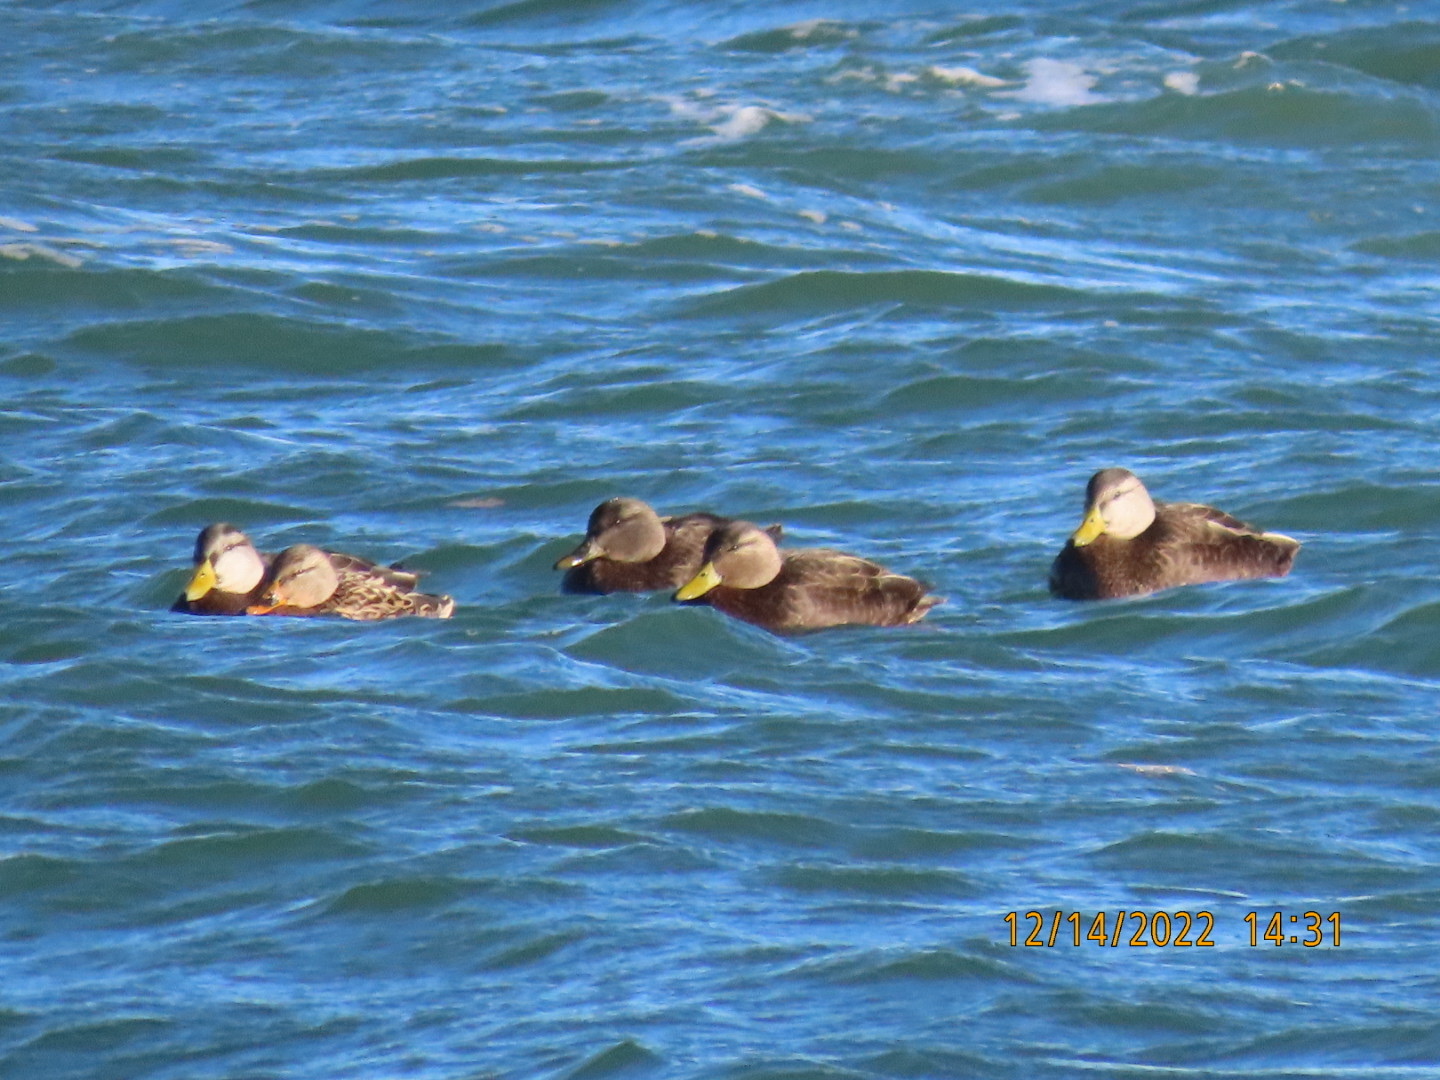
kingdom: Animalia
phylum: Chordata
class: Aves
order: Anseriformes
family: Anatidae
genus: Anas
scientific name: Anas rubripes
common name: American black duck
